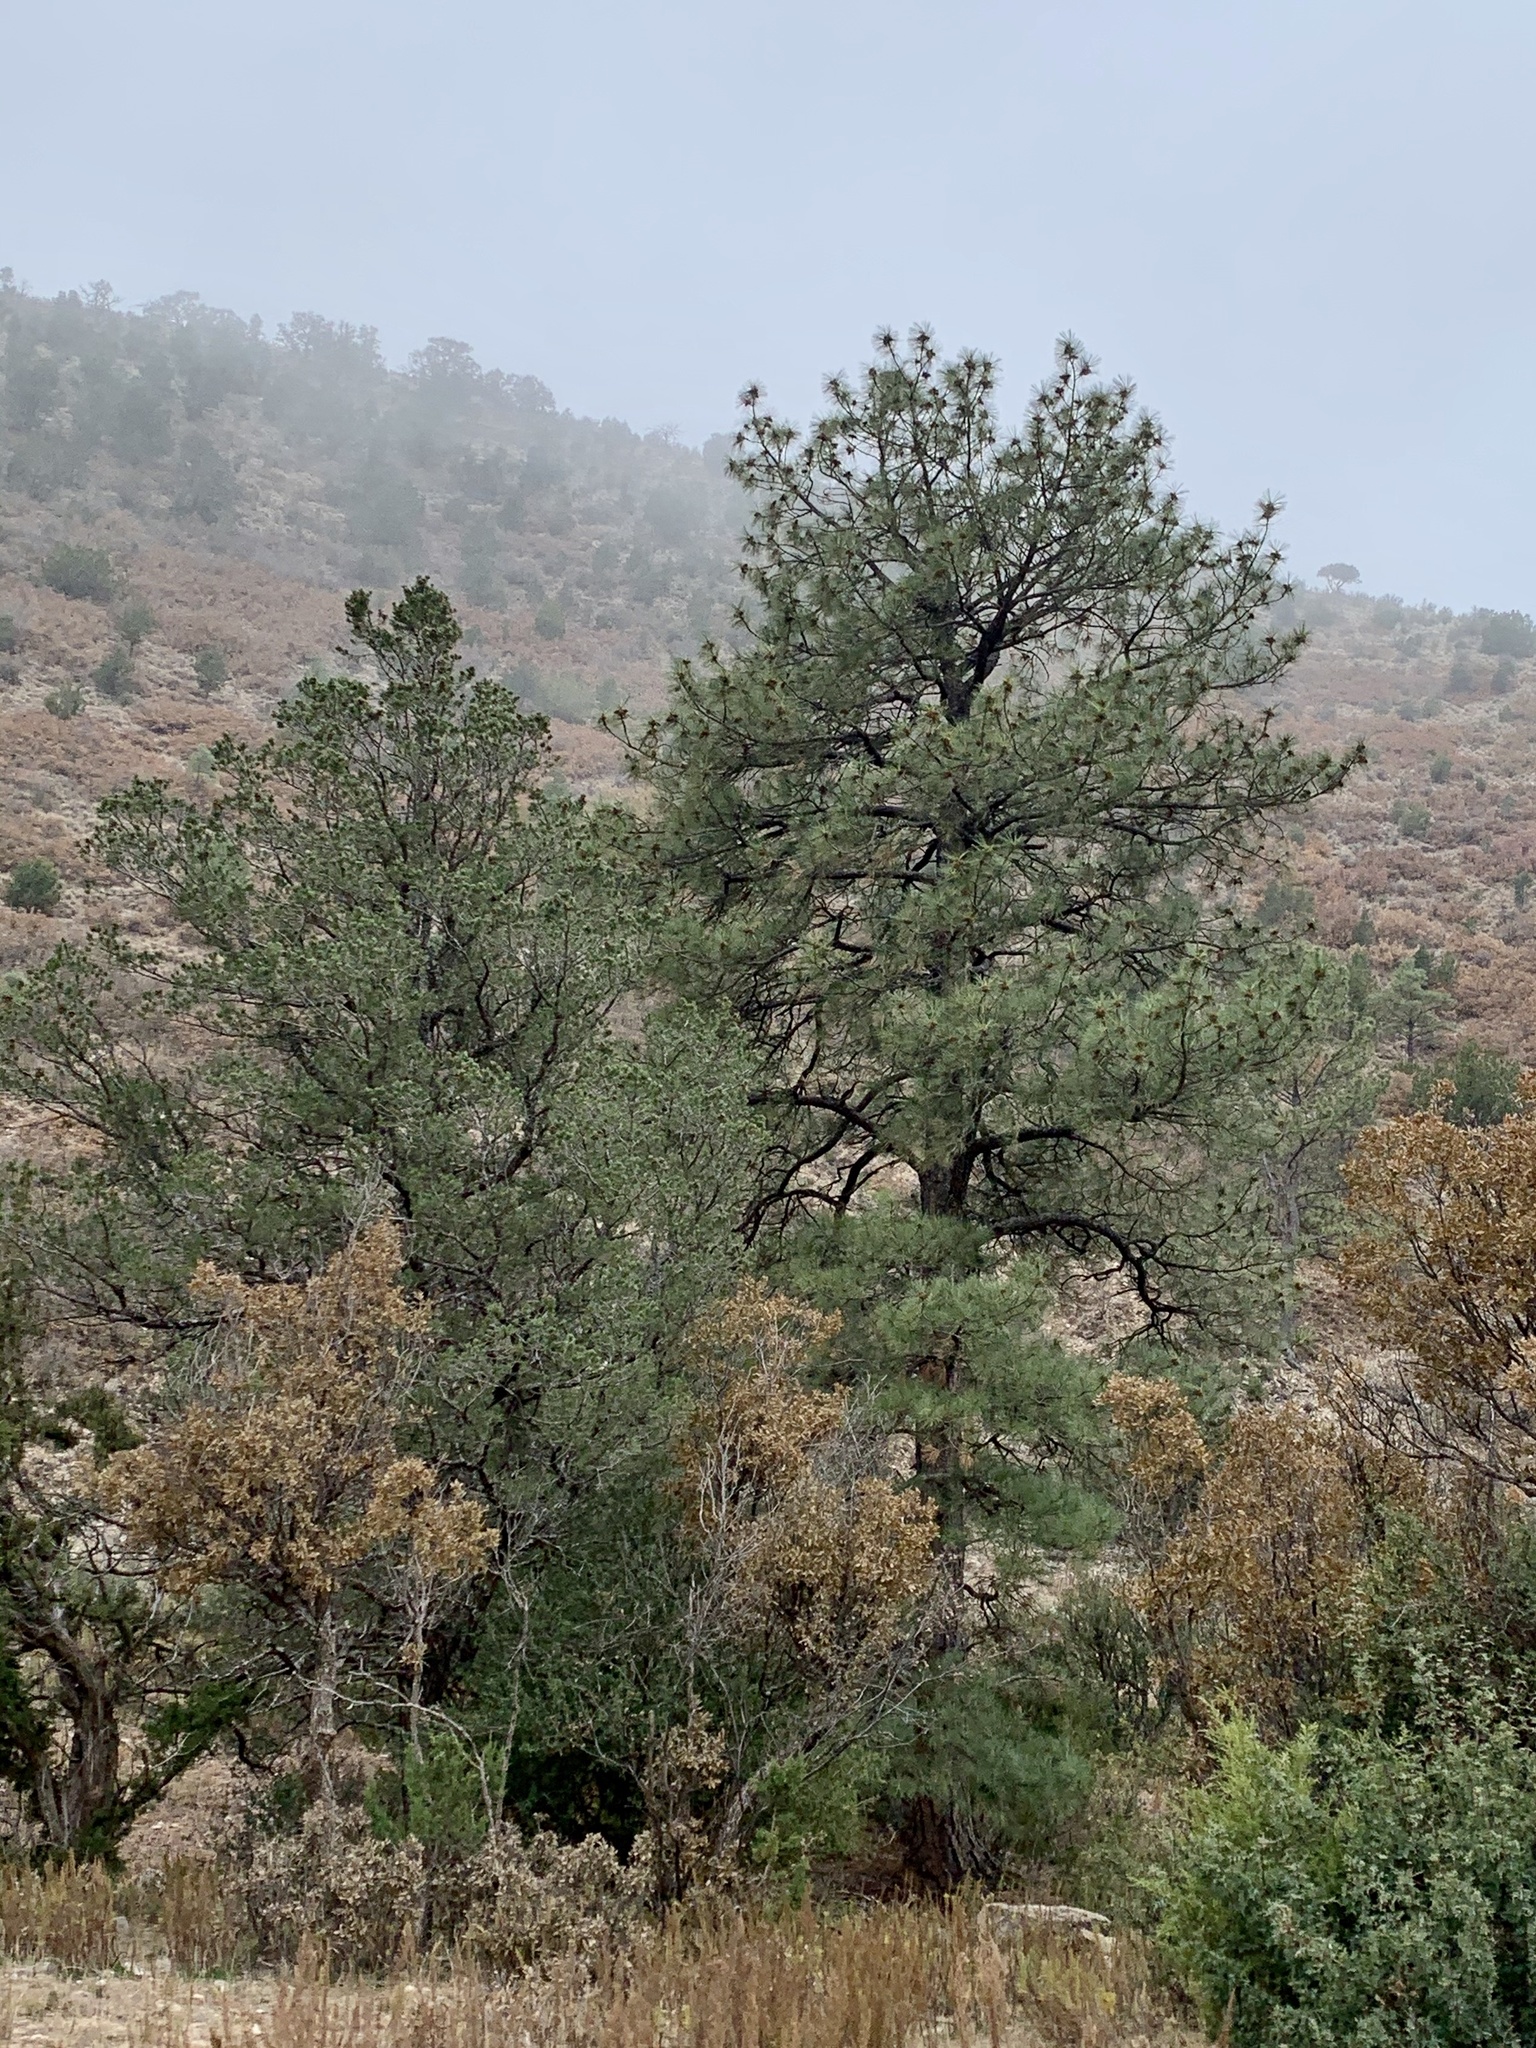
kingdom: Plantae
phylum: Tracheophyta
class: Pinopsida
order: Pinales
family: Pinaceae
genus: Pinus
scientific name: Pinus ponderosa
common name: Western yellow-pine
